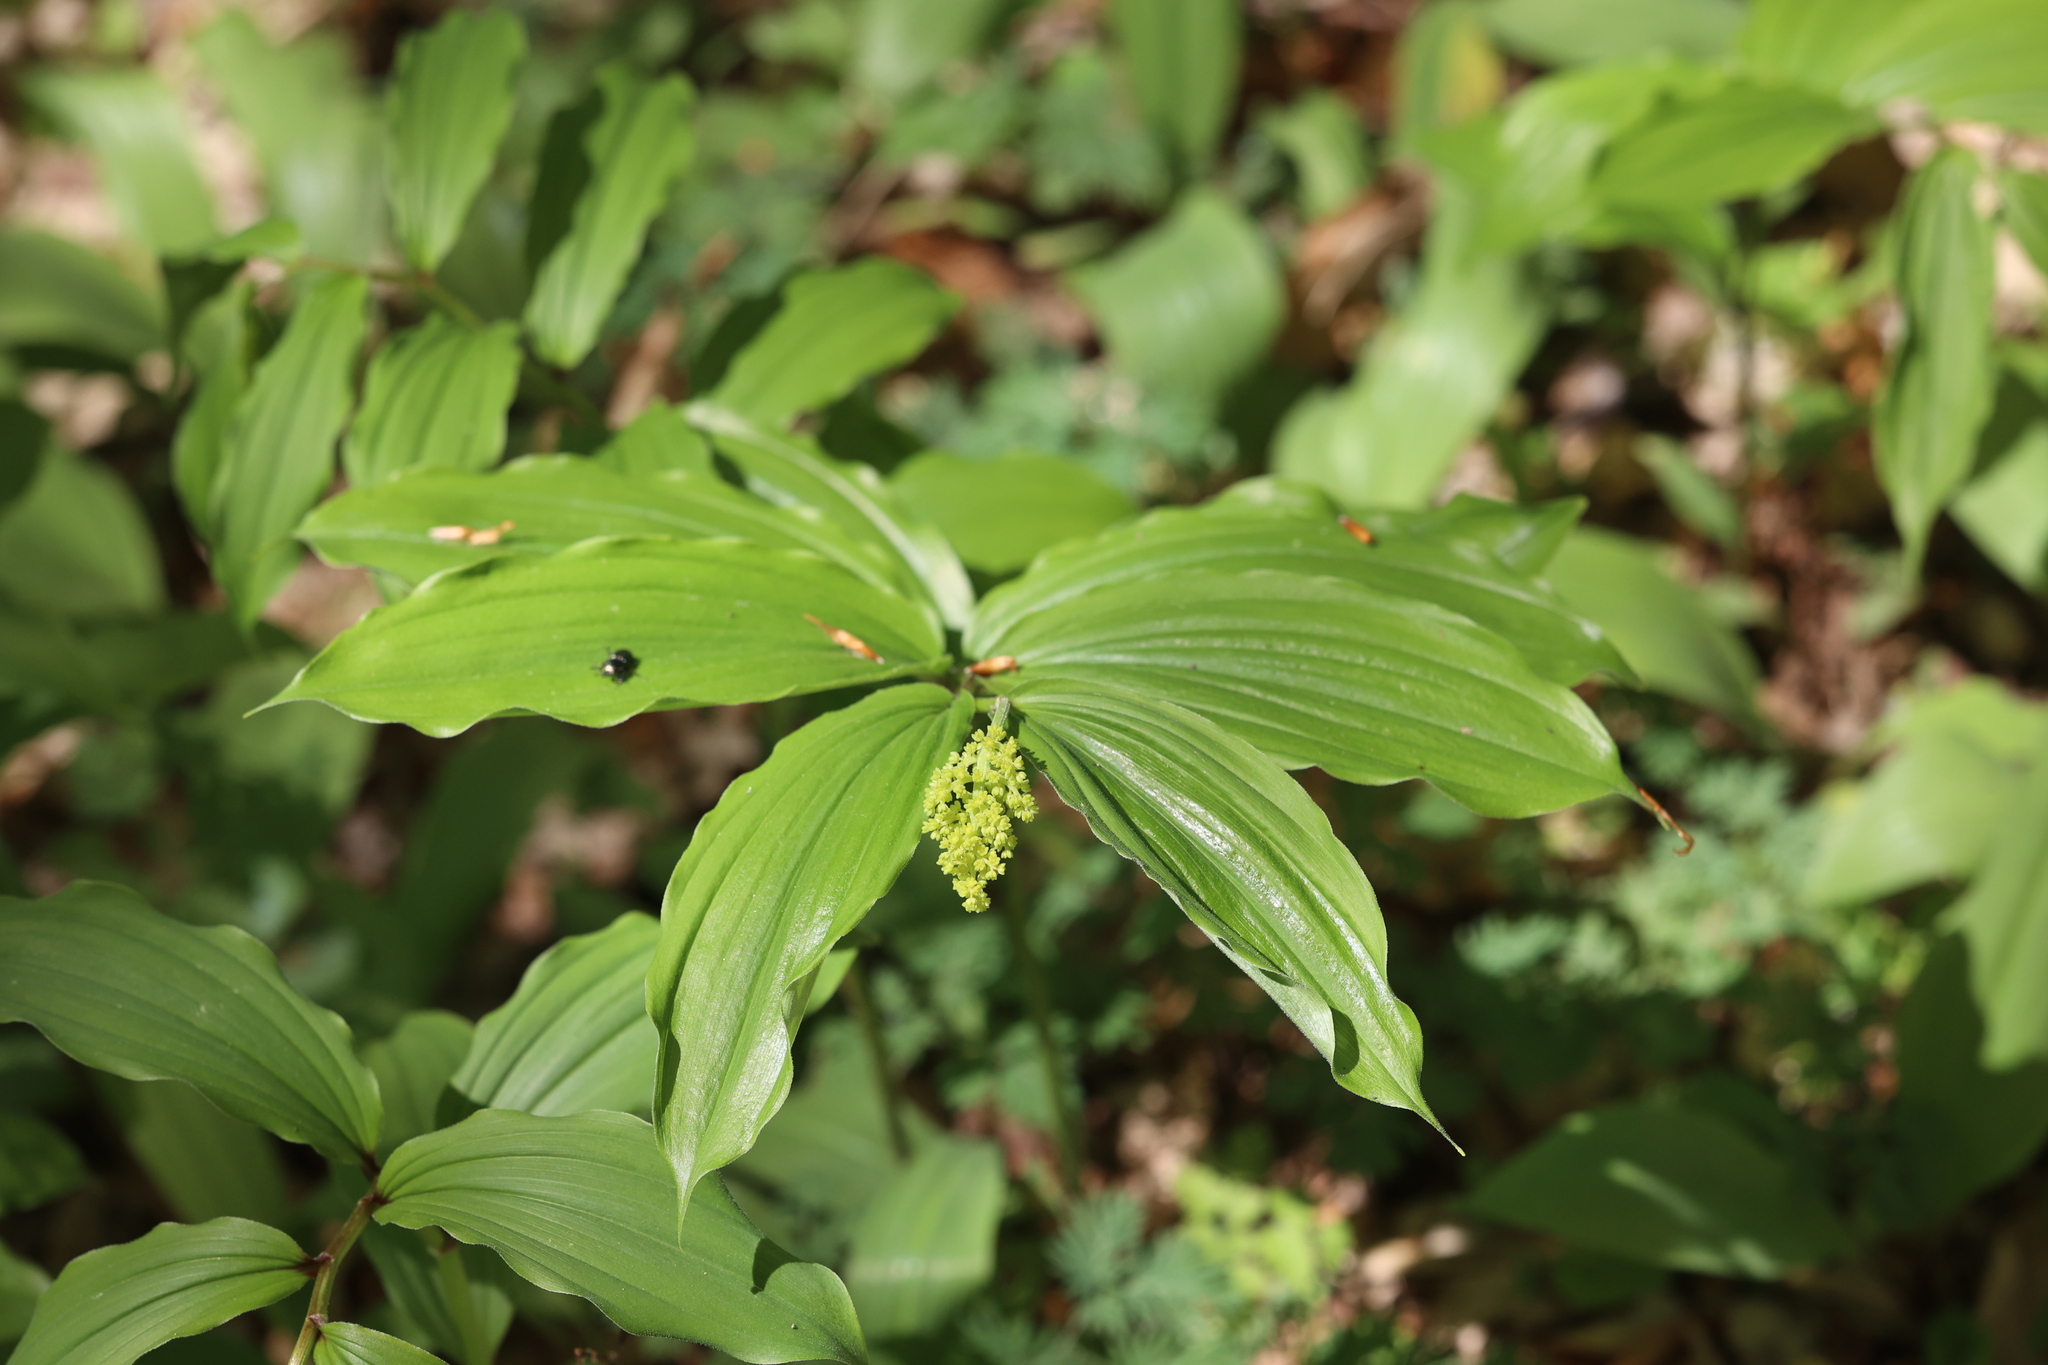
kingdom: Plantae
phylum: Tracheophyta
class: Liliopsida
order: Asparagales
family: Asparagaceae
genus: Maianthemum
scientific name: Maianthemum racemosum
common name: False spikenard
